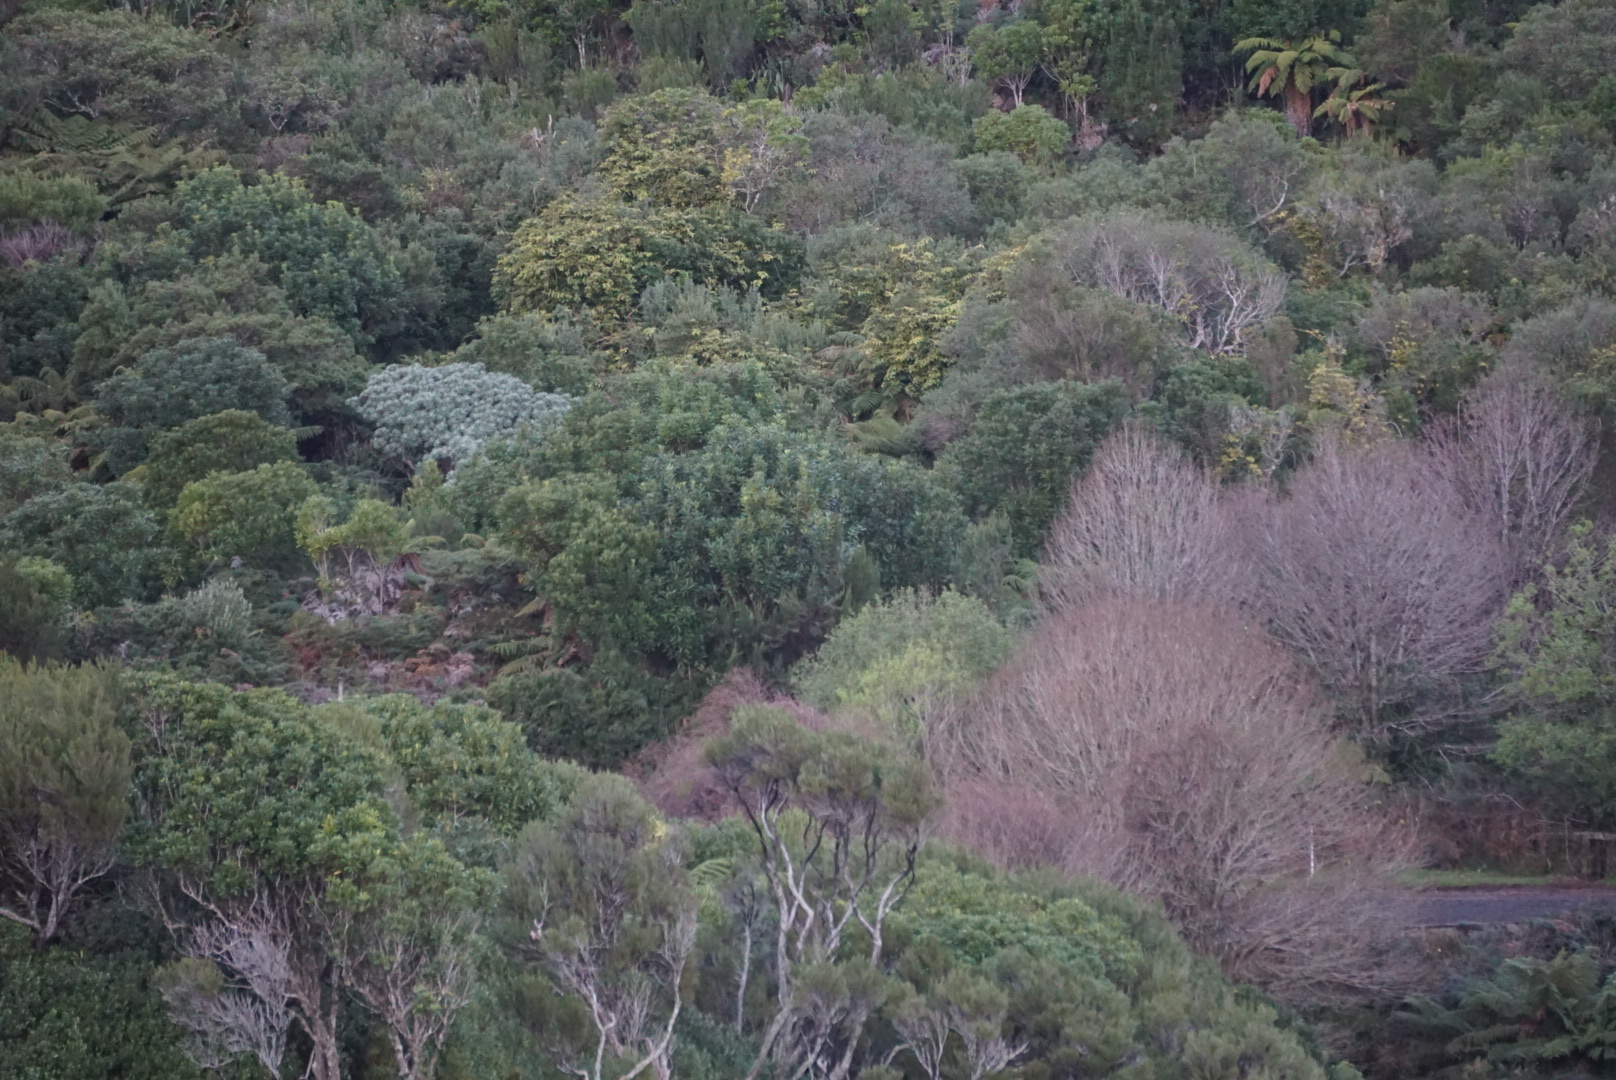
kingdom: Plantae
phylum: Tracheophyta
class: Magnoliopsida
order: Asterales
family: Asteraceae
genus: Brachyglottis
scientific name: Brachyglottis huntii
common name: Chatham island christmas tree
